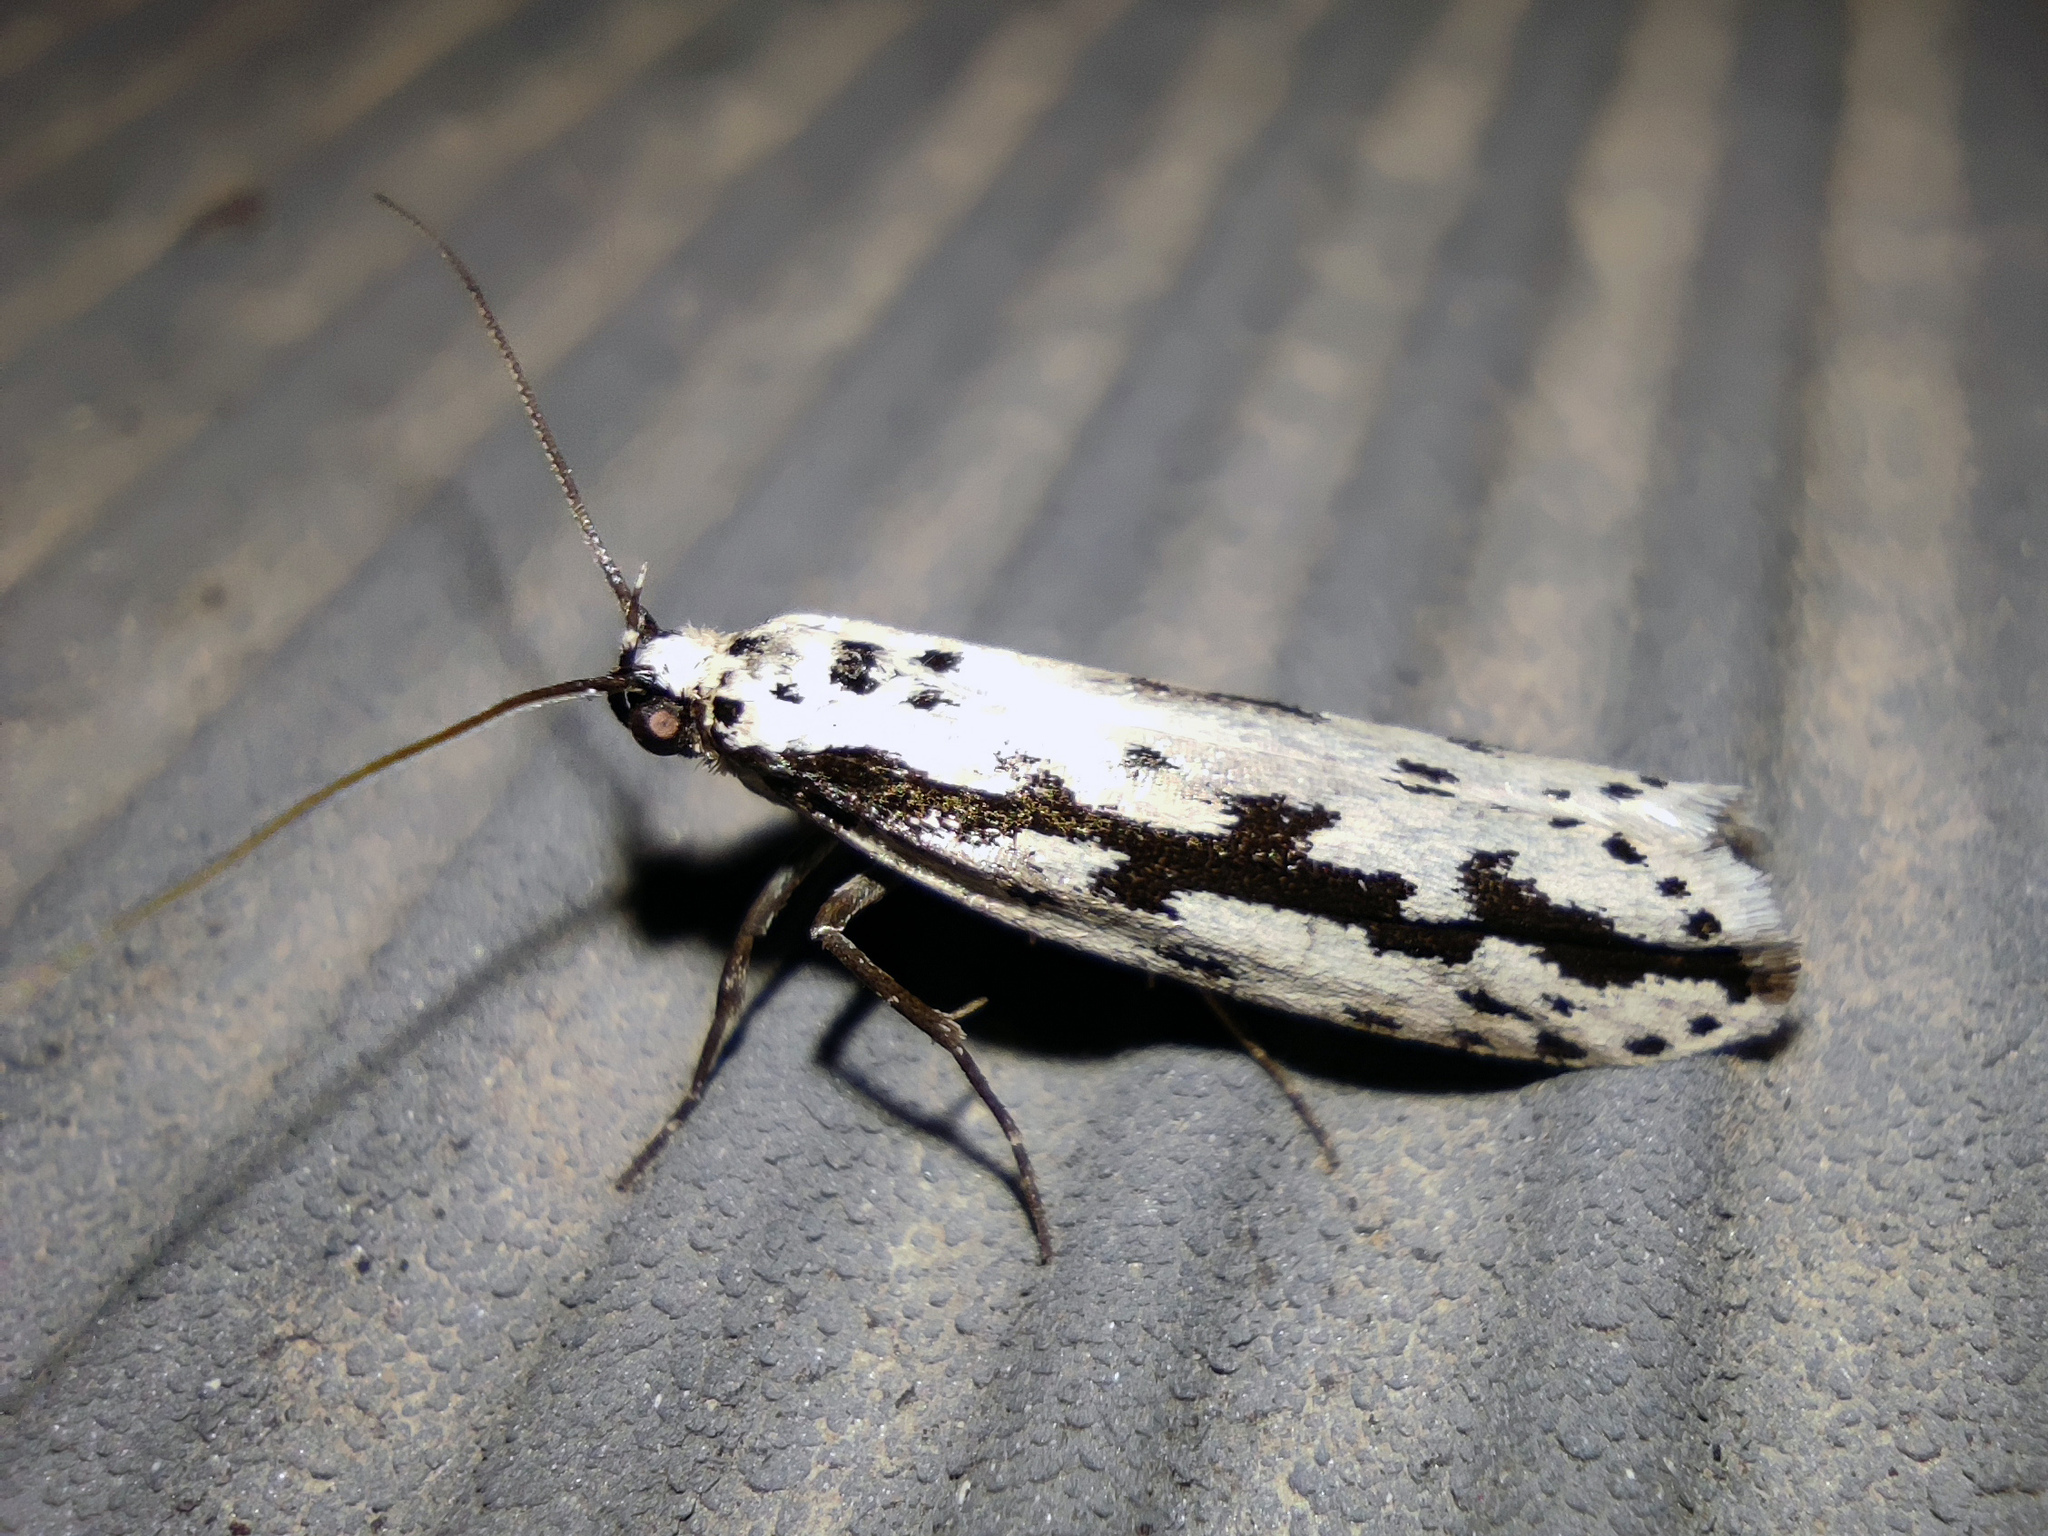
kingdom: Animalia
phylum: Arthropoda
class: Insecta
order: Lepidoptera
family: Ethmiidae
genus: Ethmia
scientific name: Ethmia fumidella
